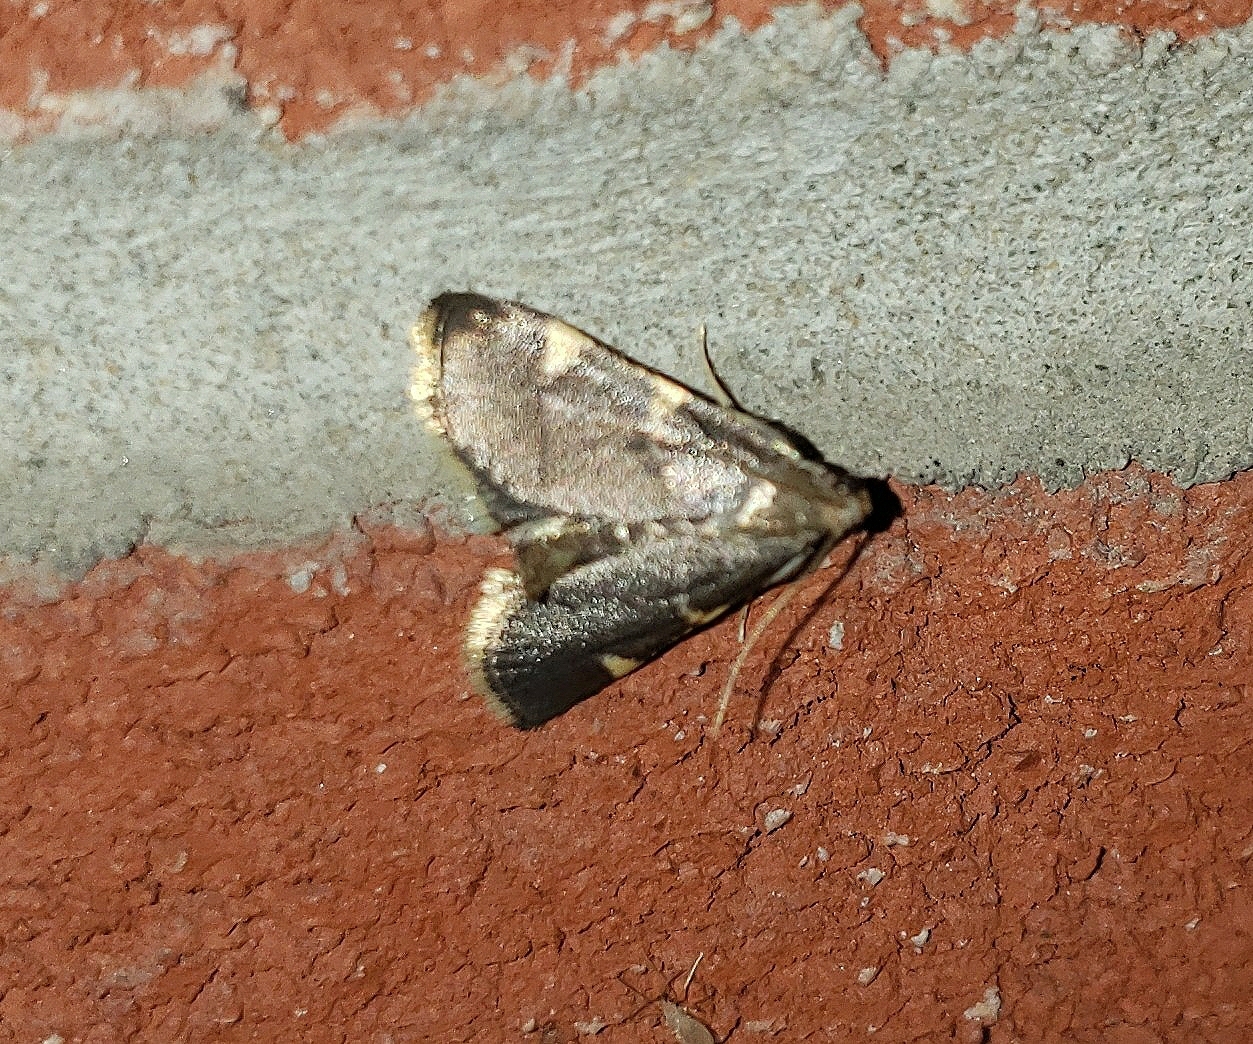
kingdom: Animalia
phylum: Arthropoda
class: Insecta
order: Lepidoptera
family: Pyralidae
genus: Hypsopygia
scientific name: Hypsopygia olinalis
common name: Yellow-fringed dolichomia moth
